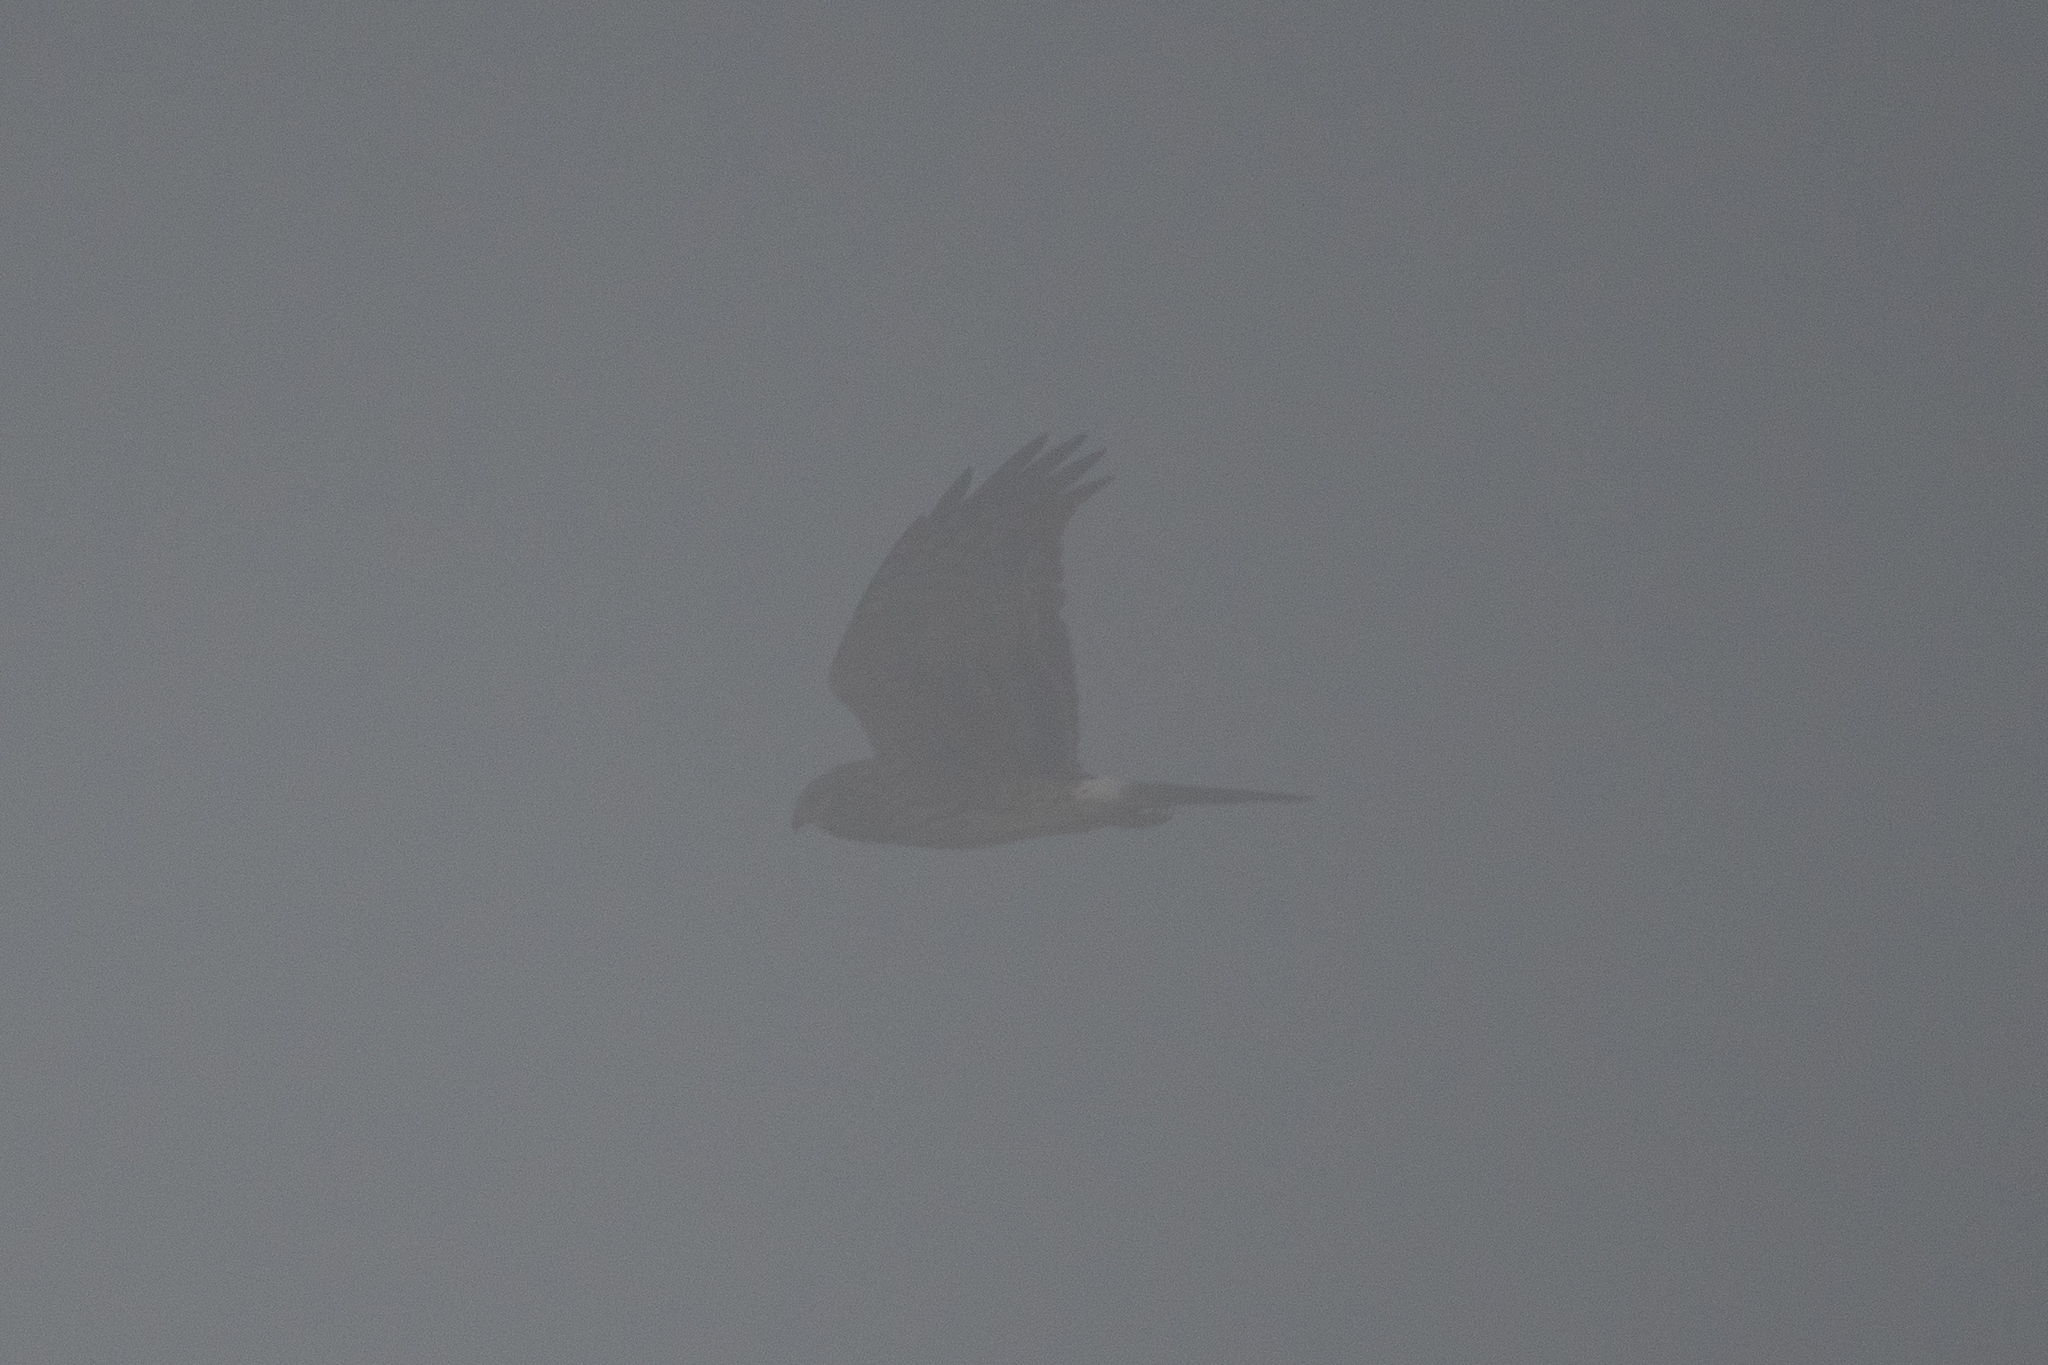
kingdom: Animalia
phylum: Chordata
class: Aves
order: Accipitriformes
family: Accipitridae
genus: Circus
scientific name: Circus cyaneus
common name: Hen harrier
